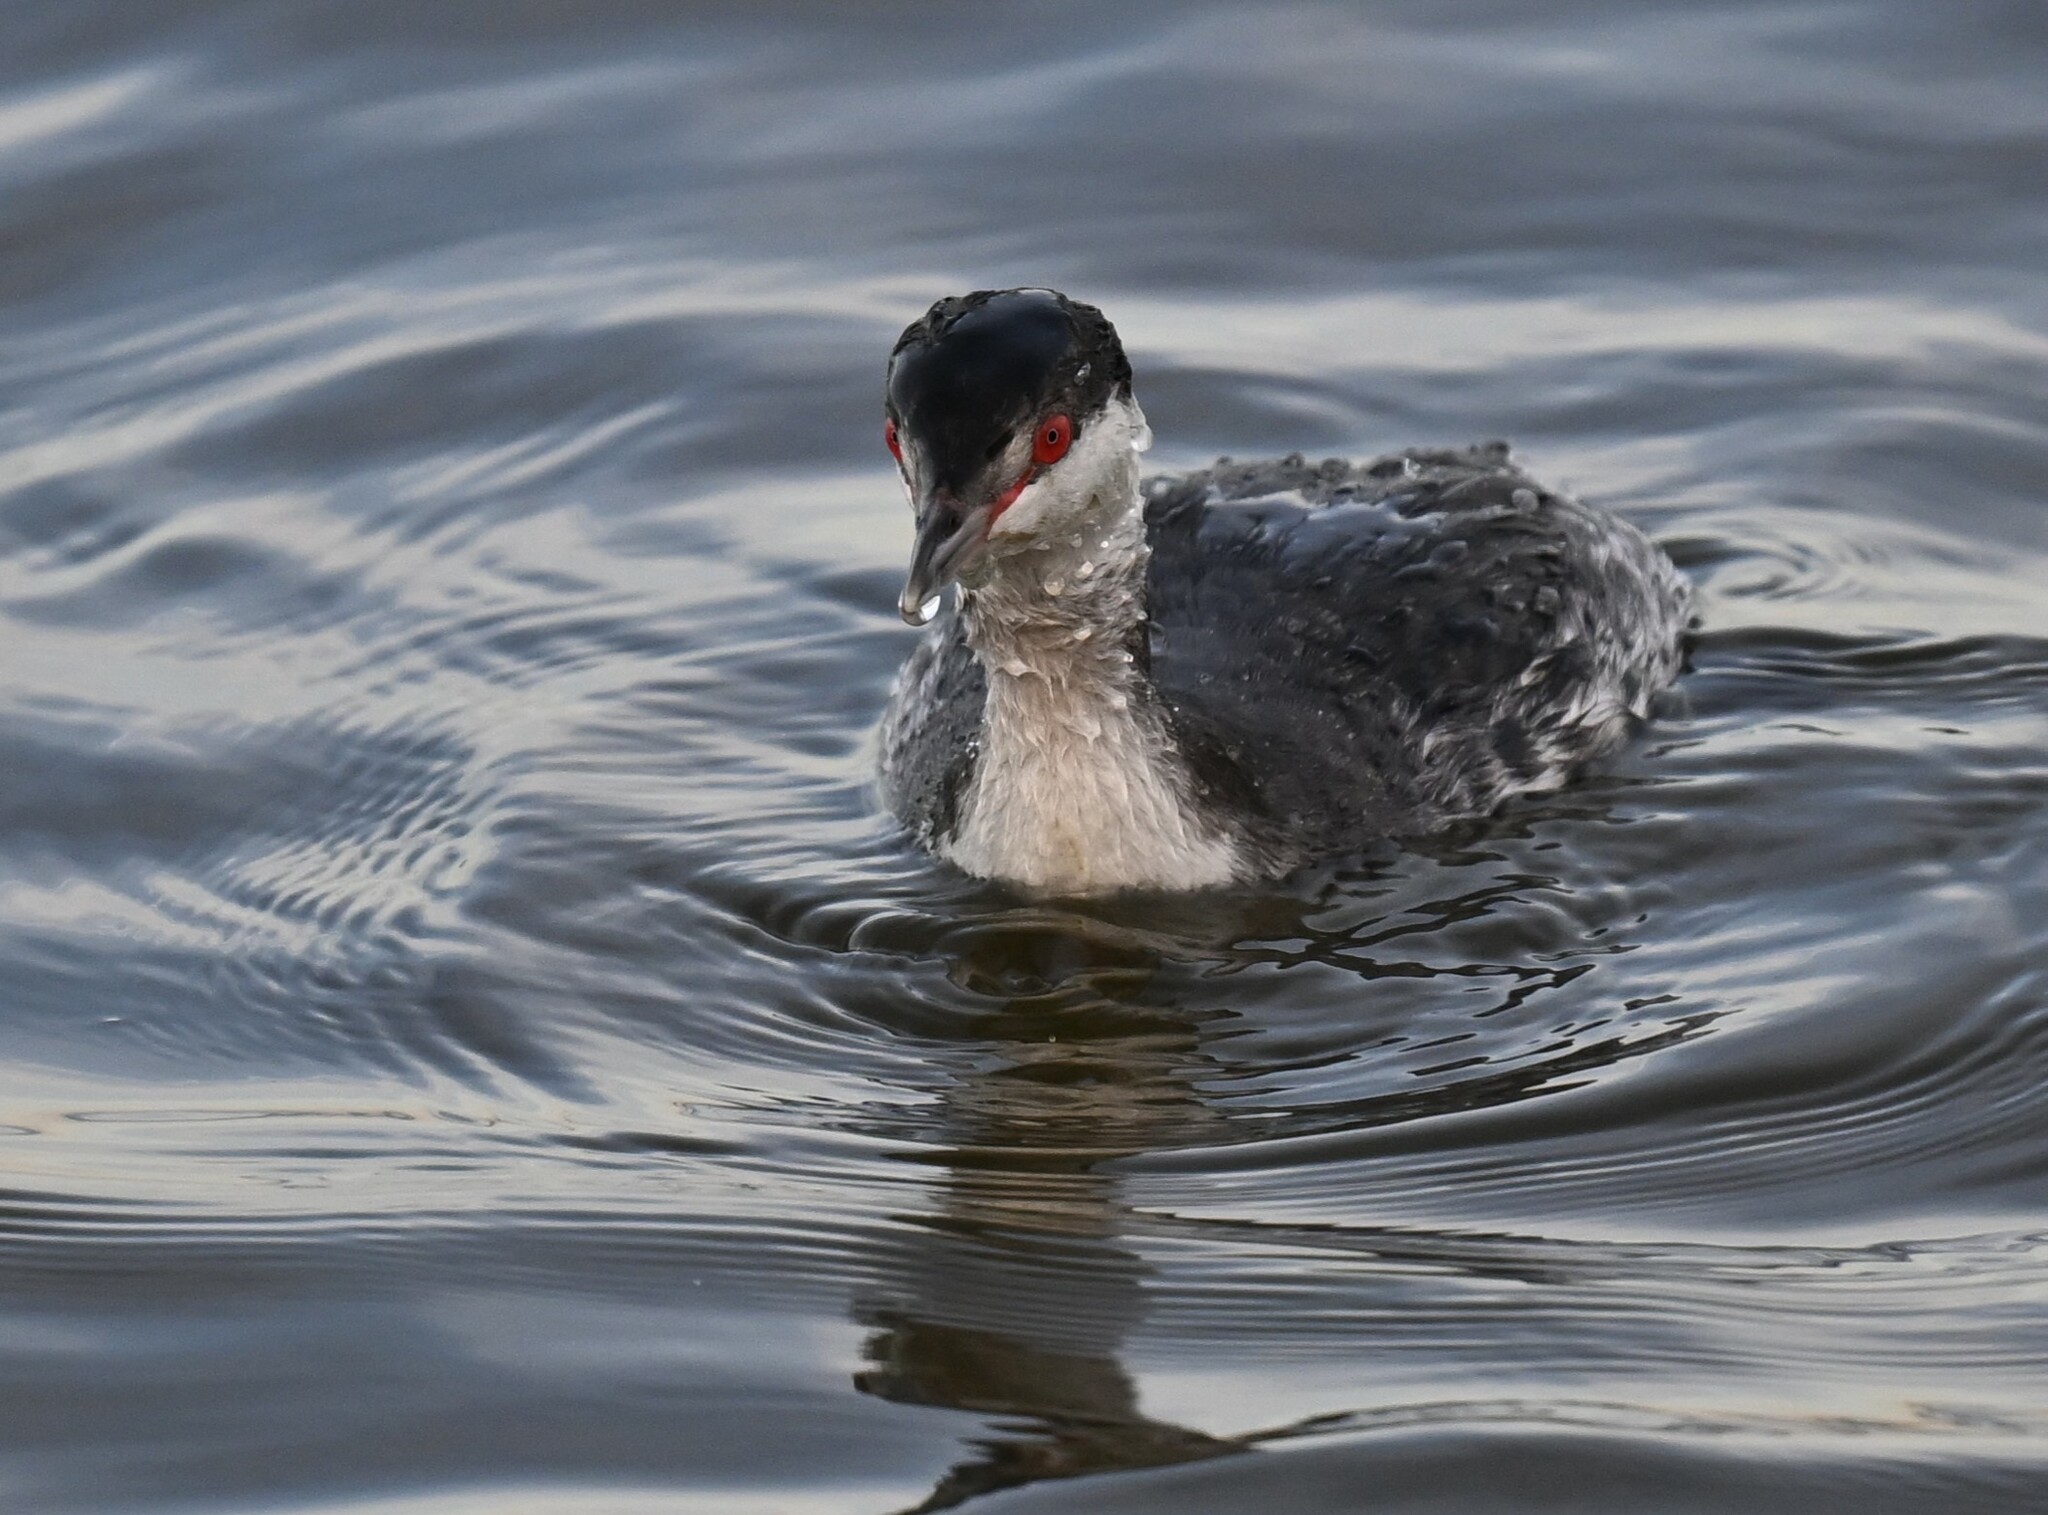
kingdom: Animalia
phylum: Chordata
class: Aves
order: Podicipediformes
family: Podicipedidae
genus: Podiceps
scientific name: Podiceps auritus
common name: Horned grebe
